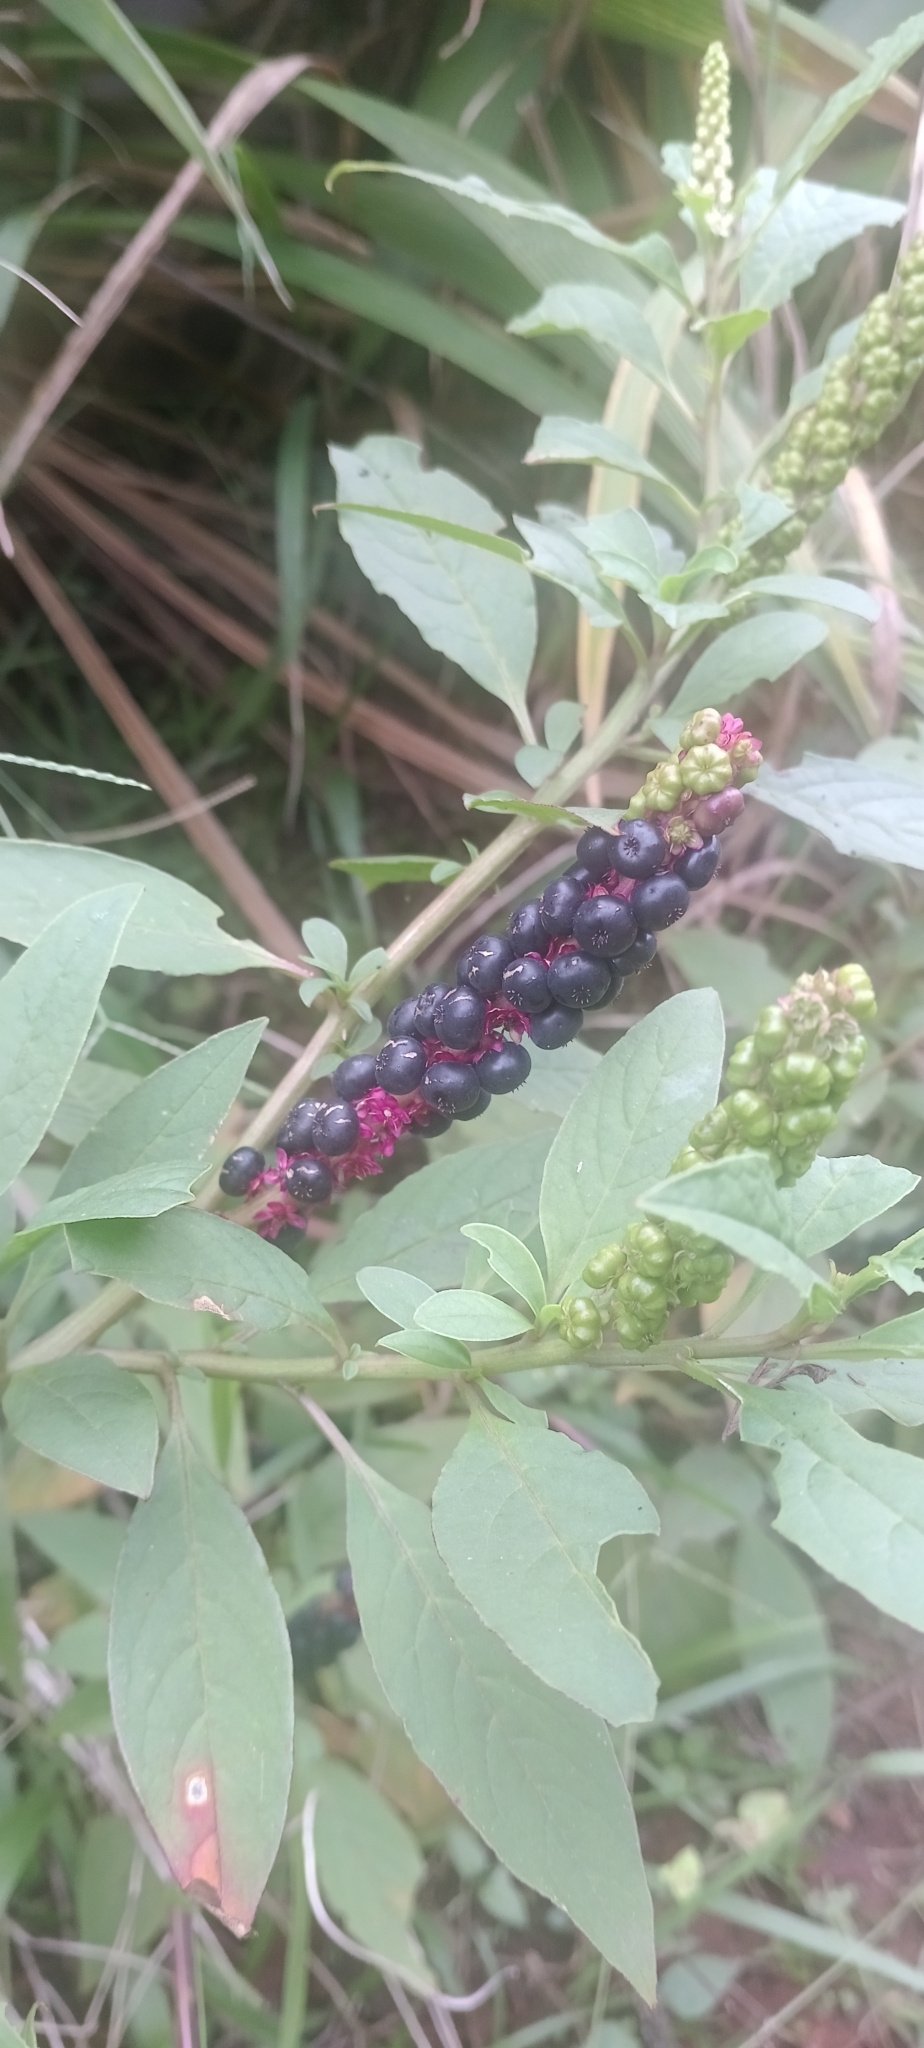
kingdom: Plantae
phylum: Tracheophyta
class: Magnoliopsida
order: Caryophyllales
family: Phytolaccaceae
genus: Phytolacca
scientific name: Phytolacca icosandra
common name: Button pokeweed
